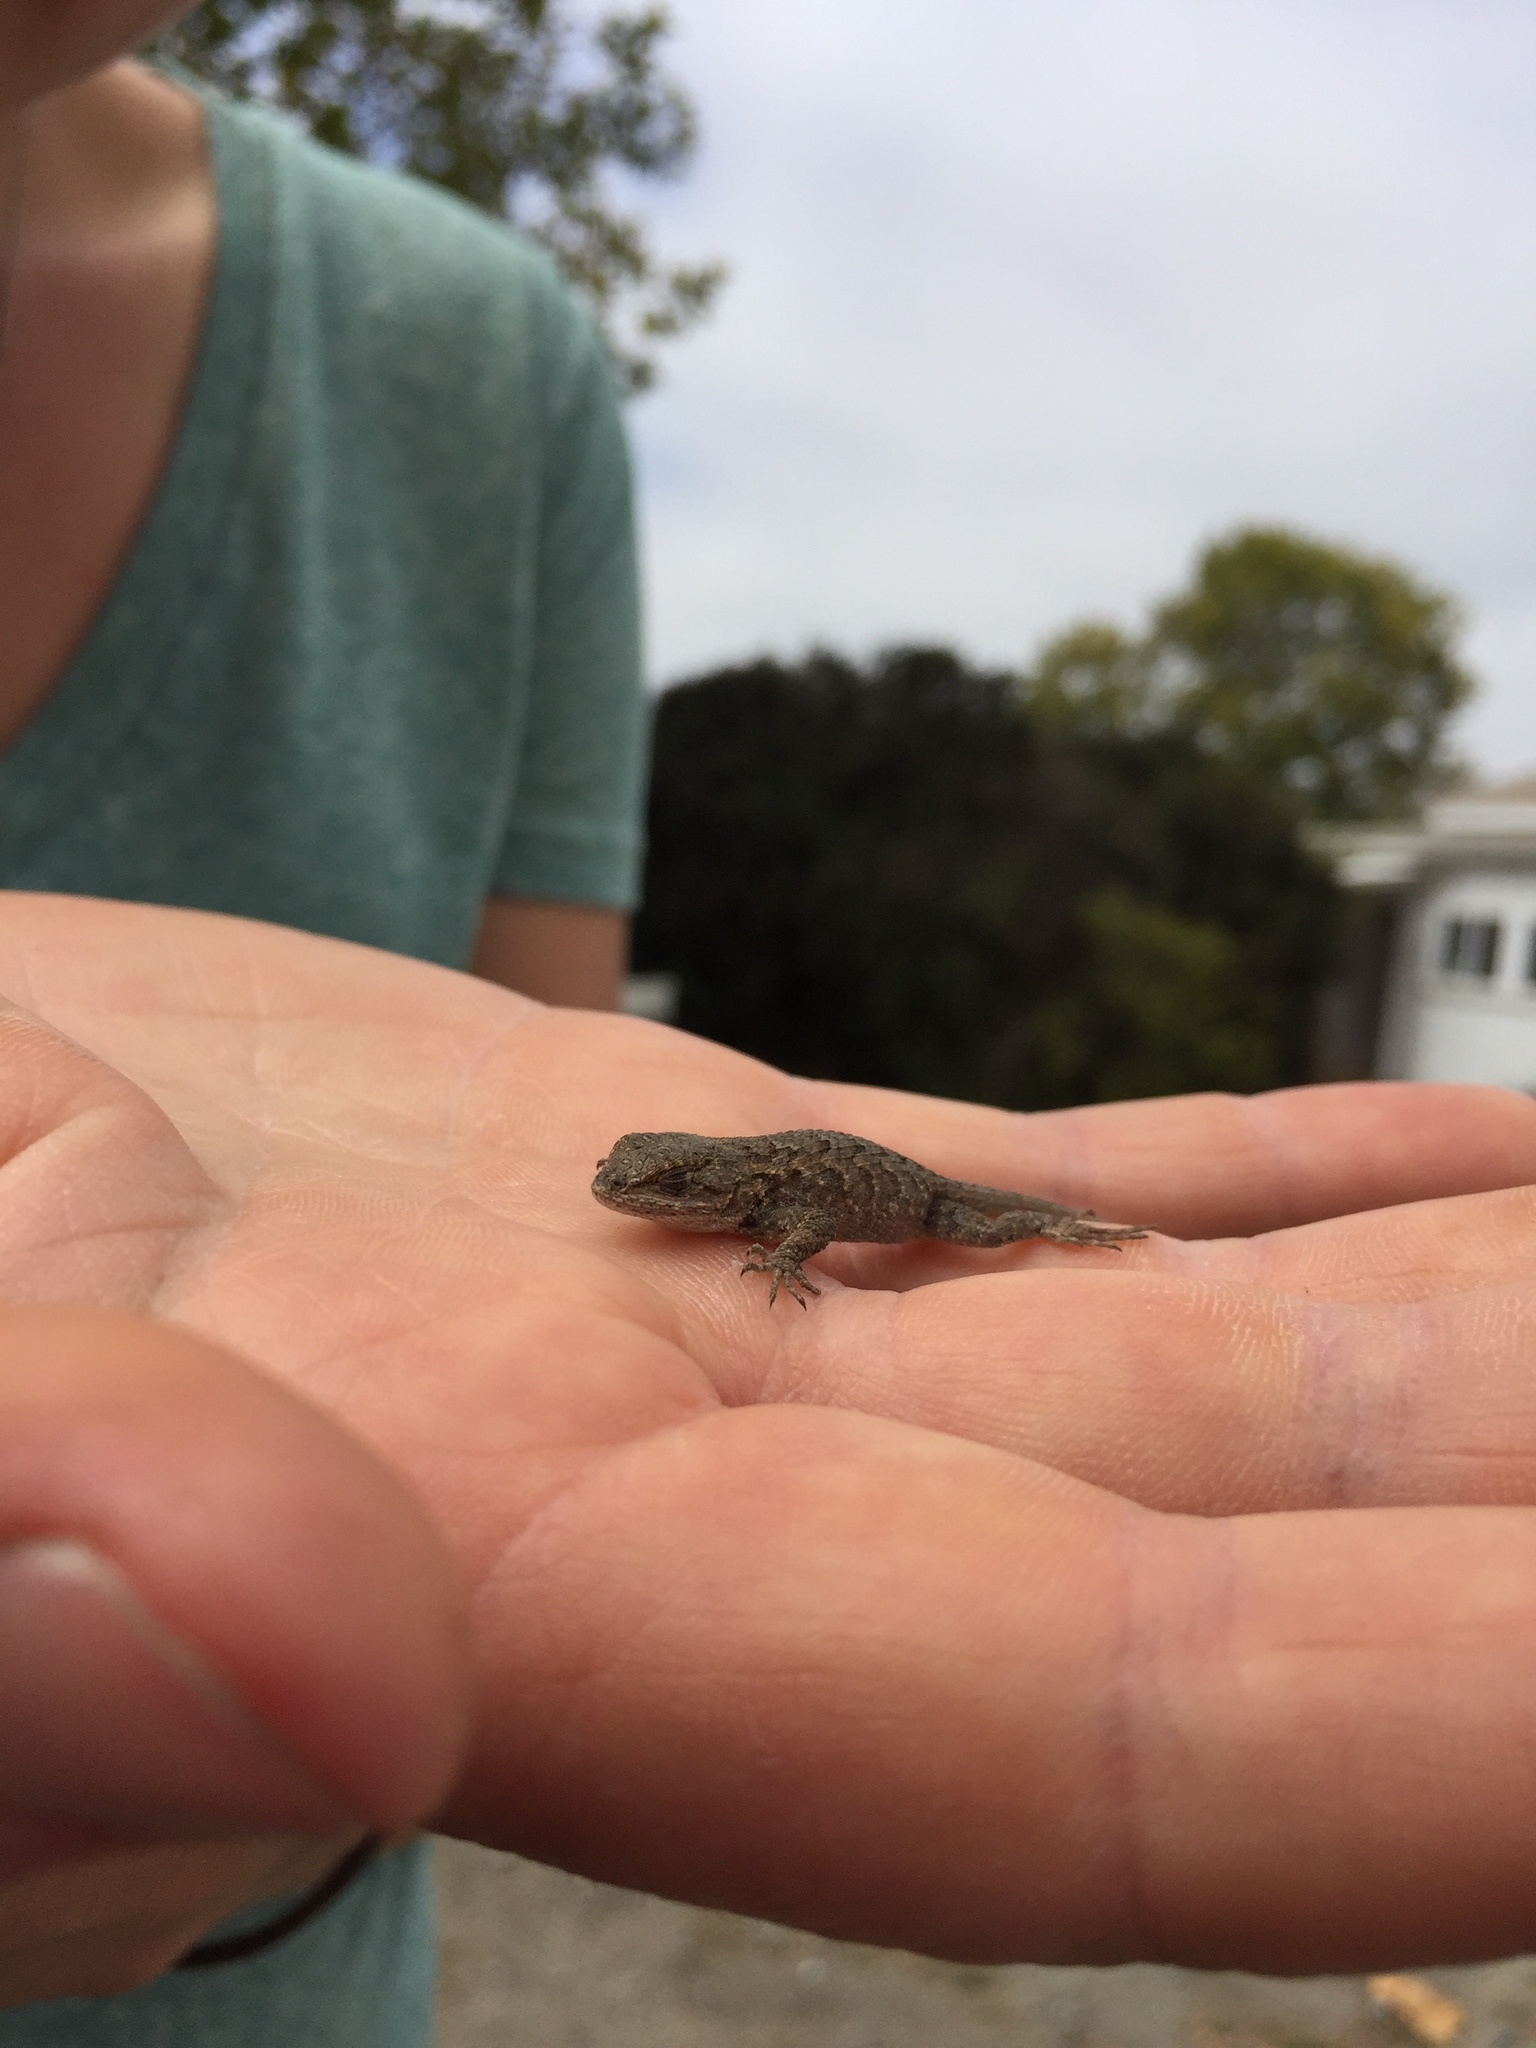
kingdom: Animalia
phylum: Chordata
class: Squamata
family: Phrynosomatidae
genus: Sceloporus
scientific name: Sceloporus occidentalis
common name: Western fence lizard
